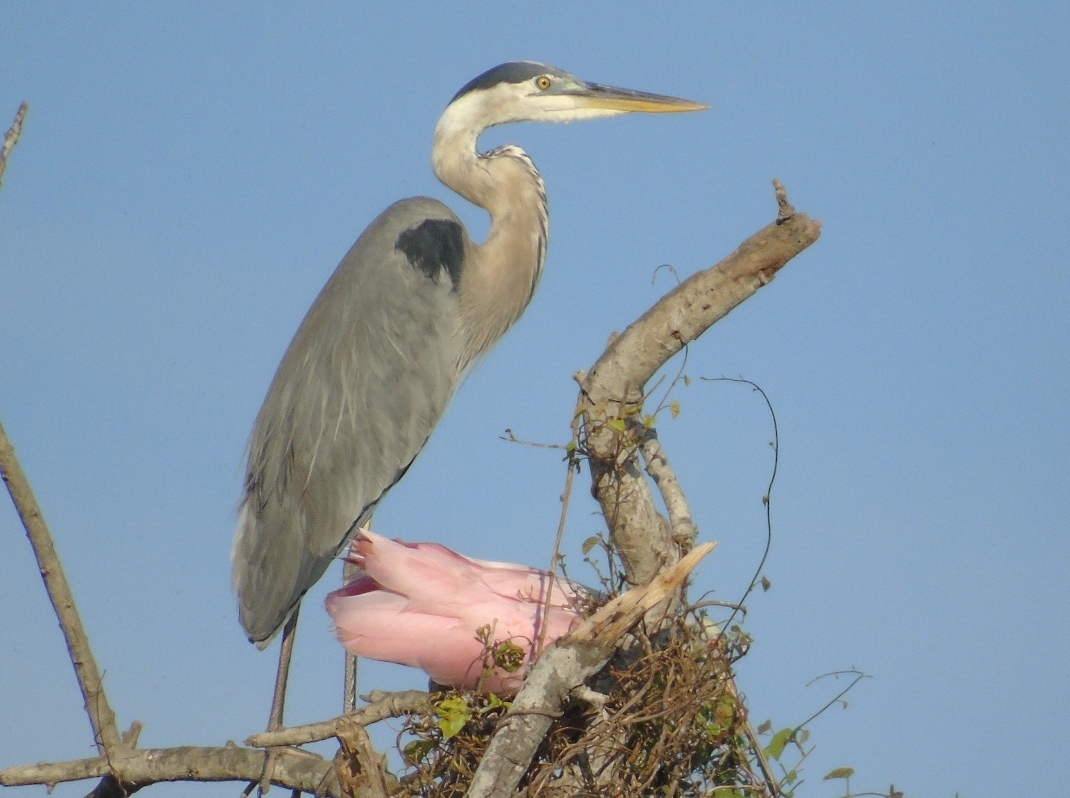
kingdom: Animalia
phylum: Chordata
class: Aves
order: Pelecaniformes
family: Threskiornithidae
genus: Platalea
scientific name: Platalea ajaja
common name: Roseate spoonbill
